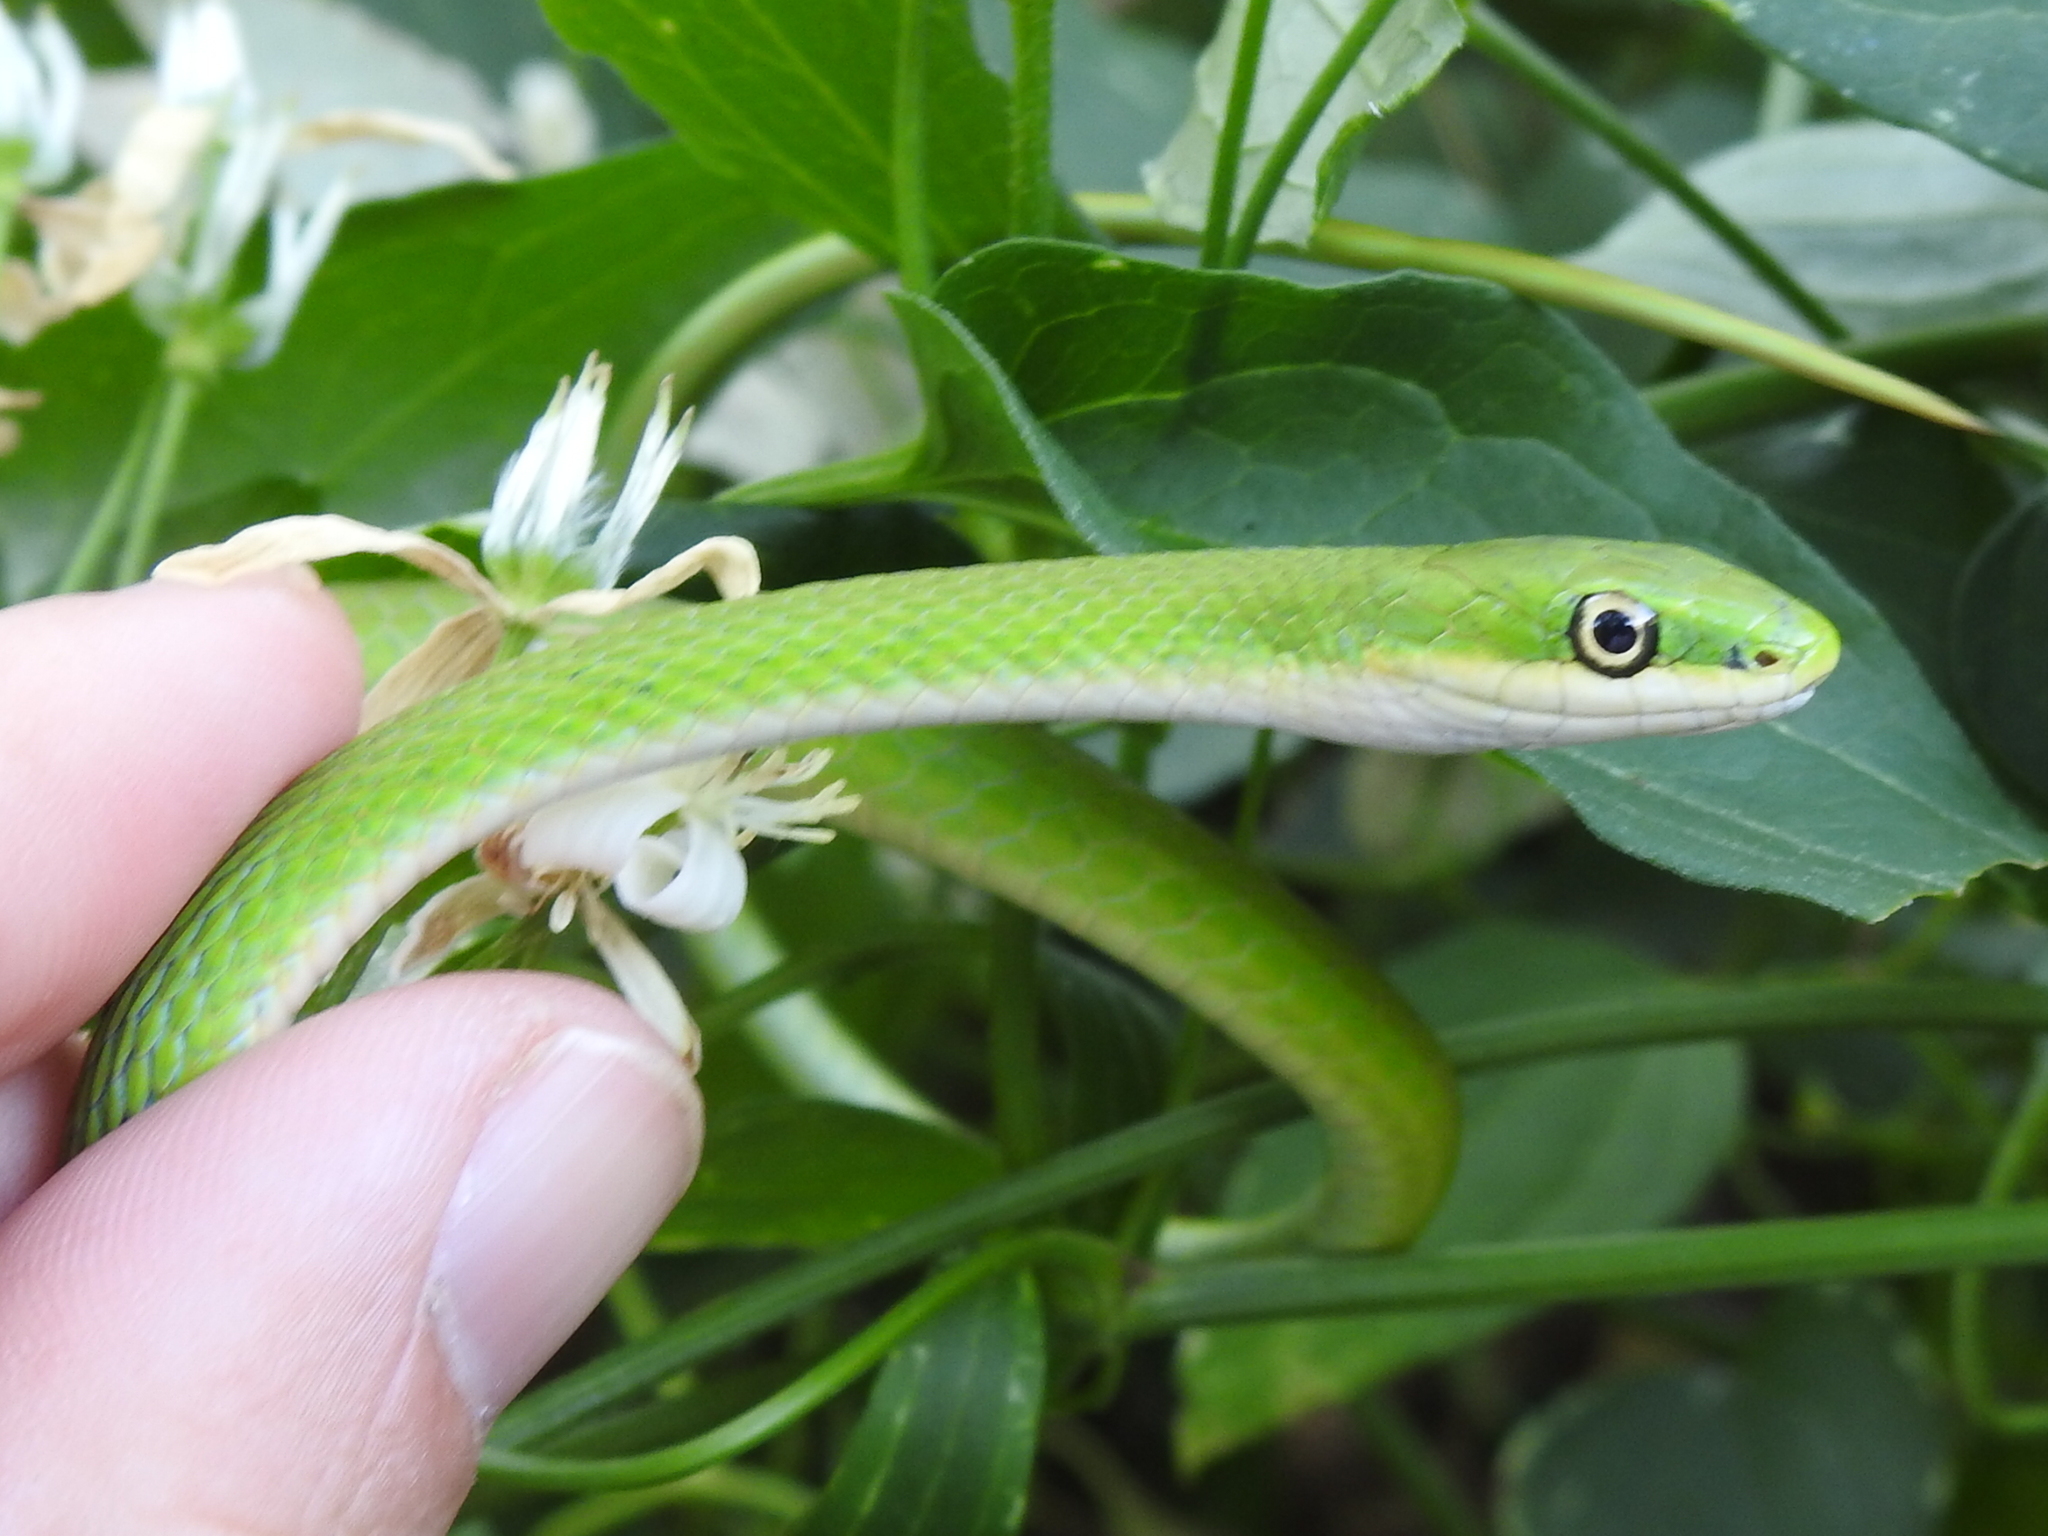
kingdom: Animalia
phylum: Chordata
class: Squamata
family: Colubridae
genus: Opheodrys
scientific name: Opheodrys aestivus
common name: Rough greensnake
